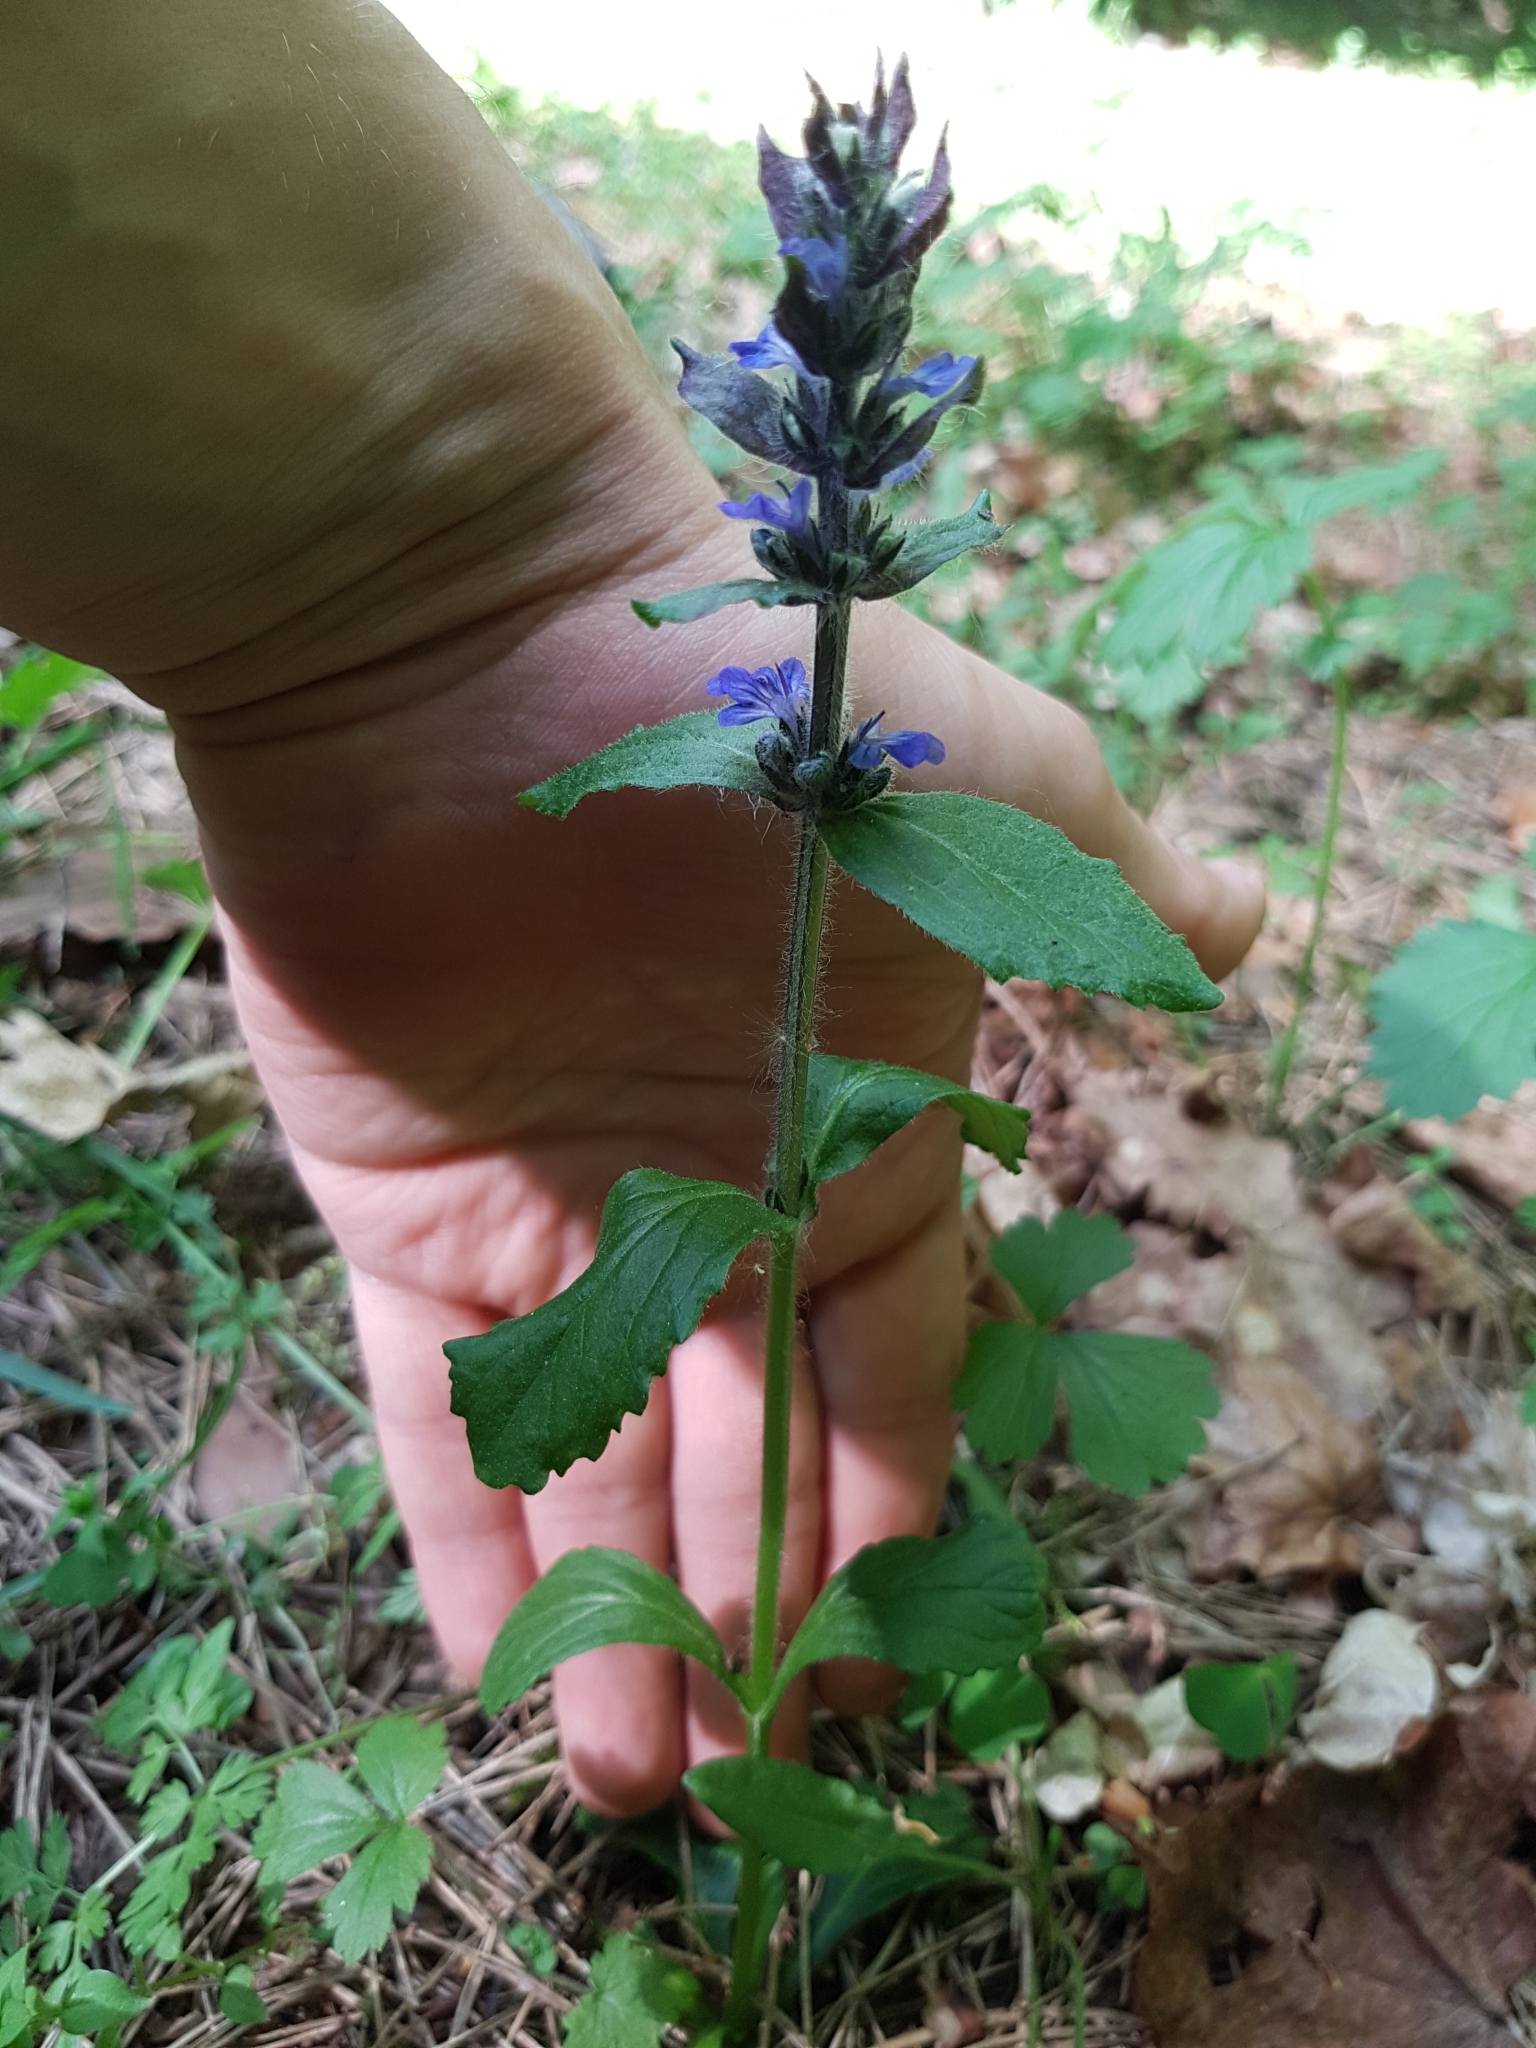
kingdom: Plantae
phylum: Tracheophyta
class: Magnoliopsida
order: Lamiales
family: Lamiaceae
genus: Ajuga
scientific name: Ajuga reptans
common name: Bugle
